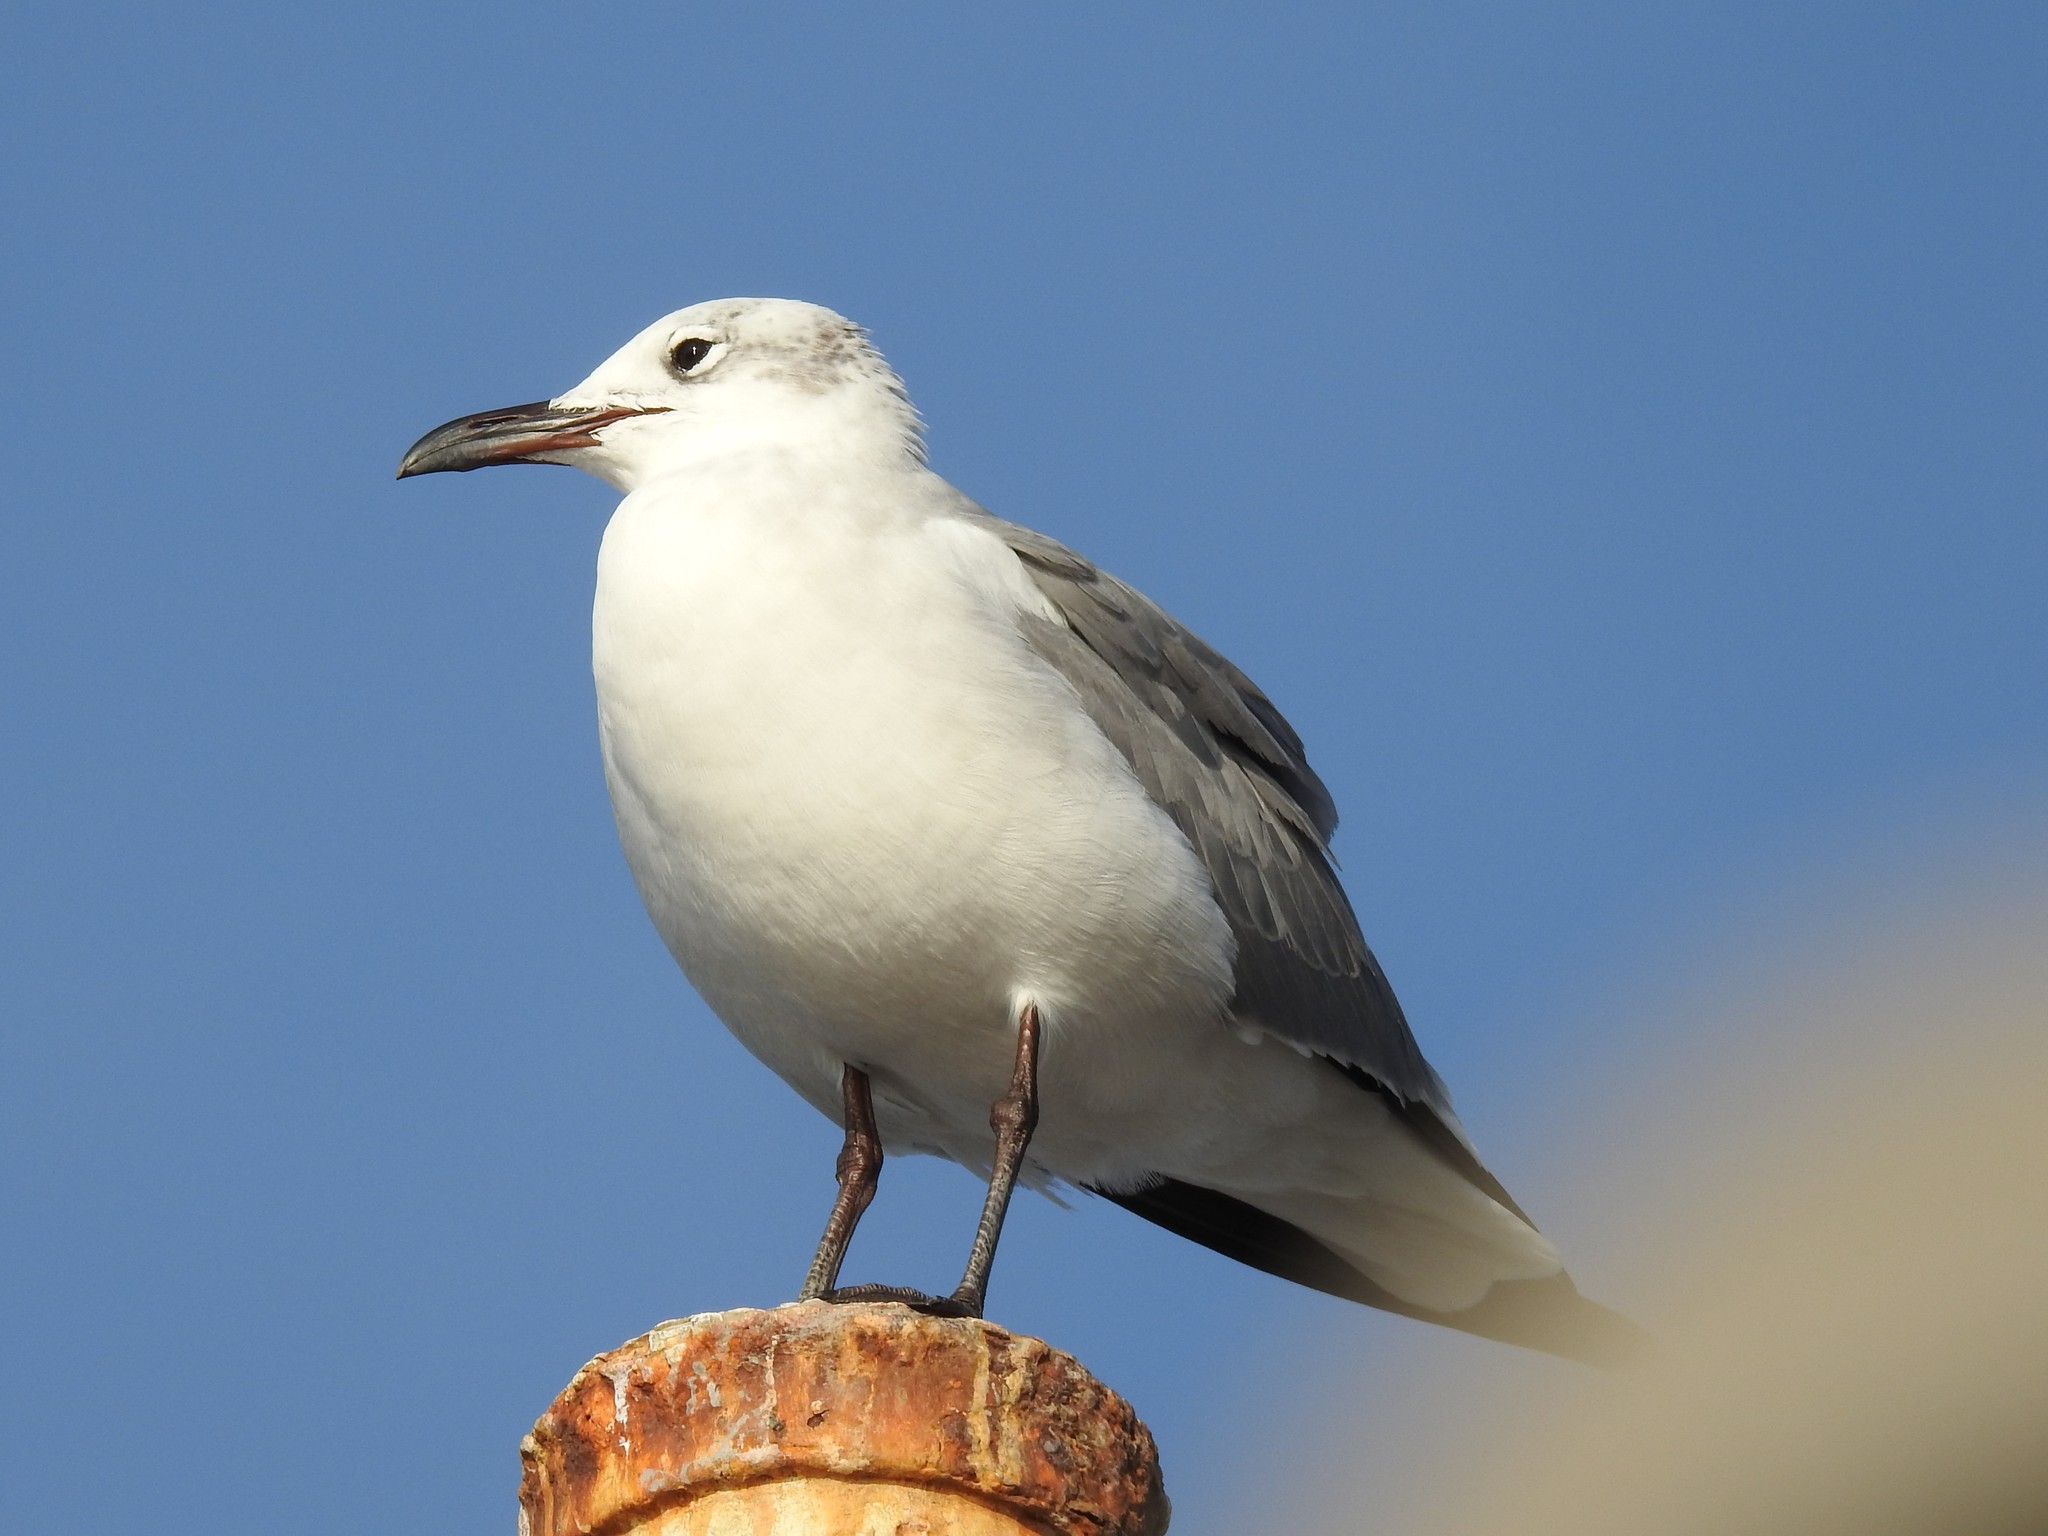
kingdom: Animalia
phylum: Chordata
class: Aves
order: Charadriiformes
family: Laridae
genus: Leucophaeus
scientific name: Leucophaeus atricilla
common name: Laughing gull
